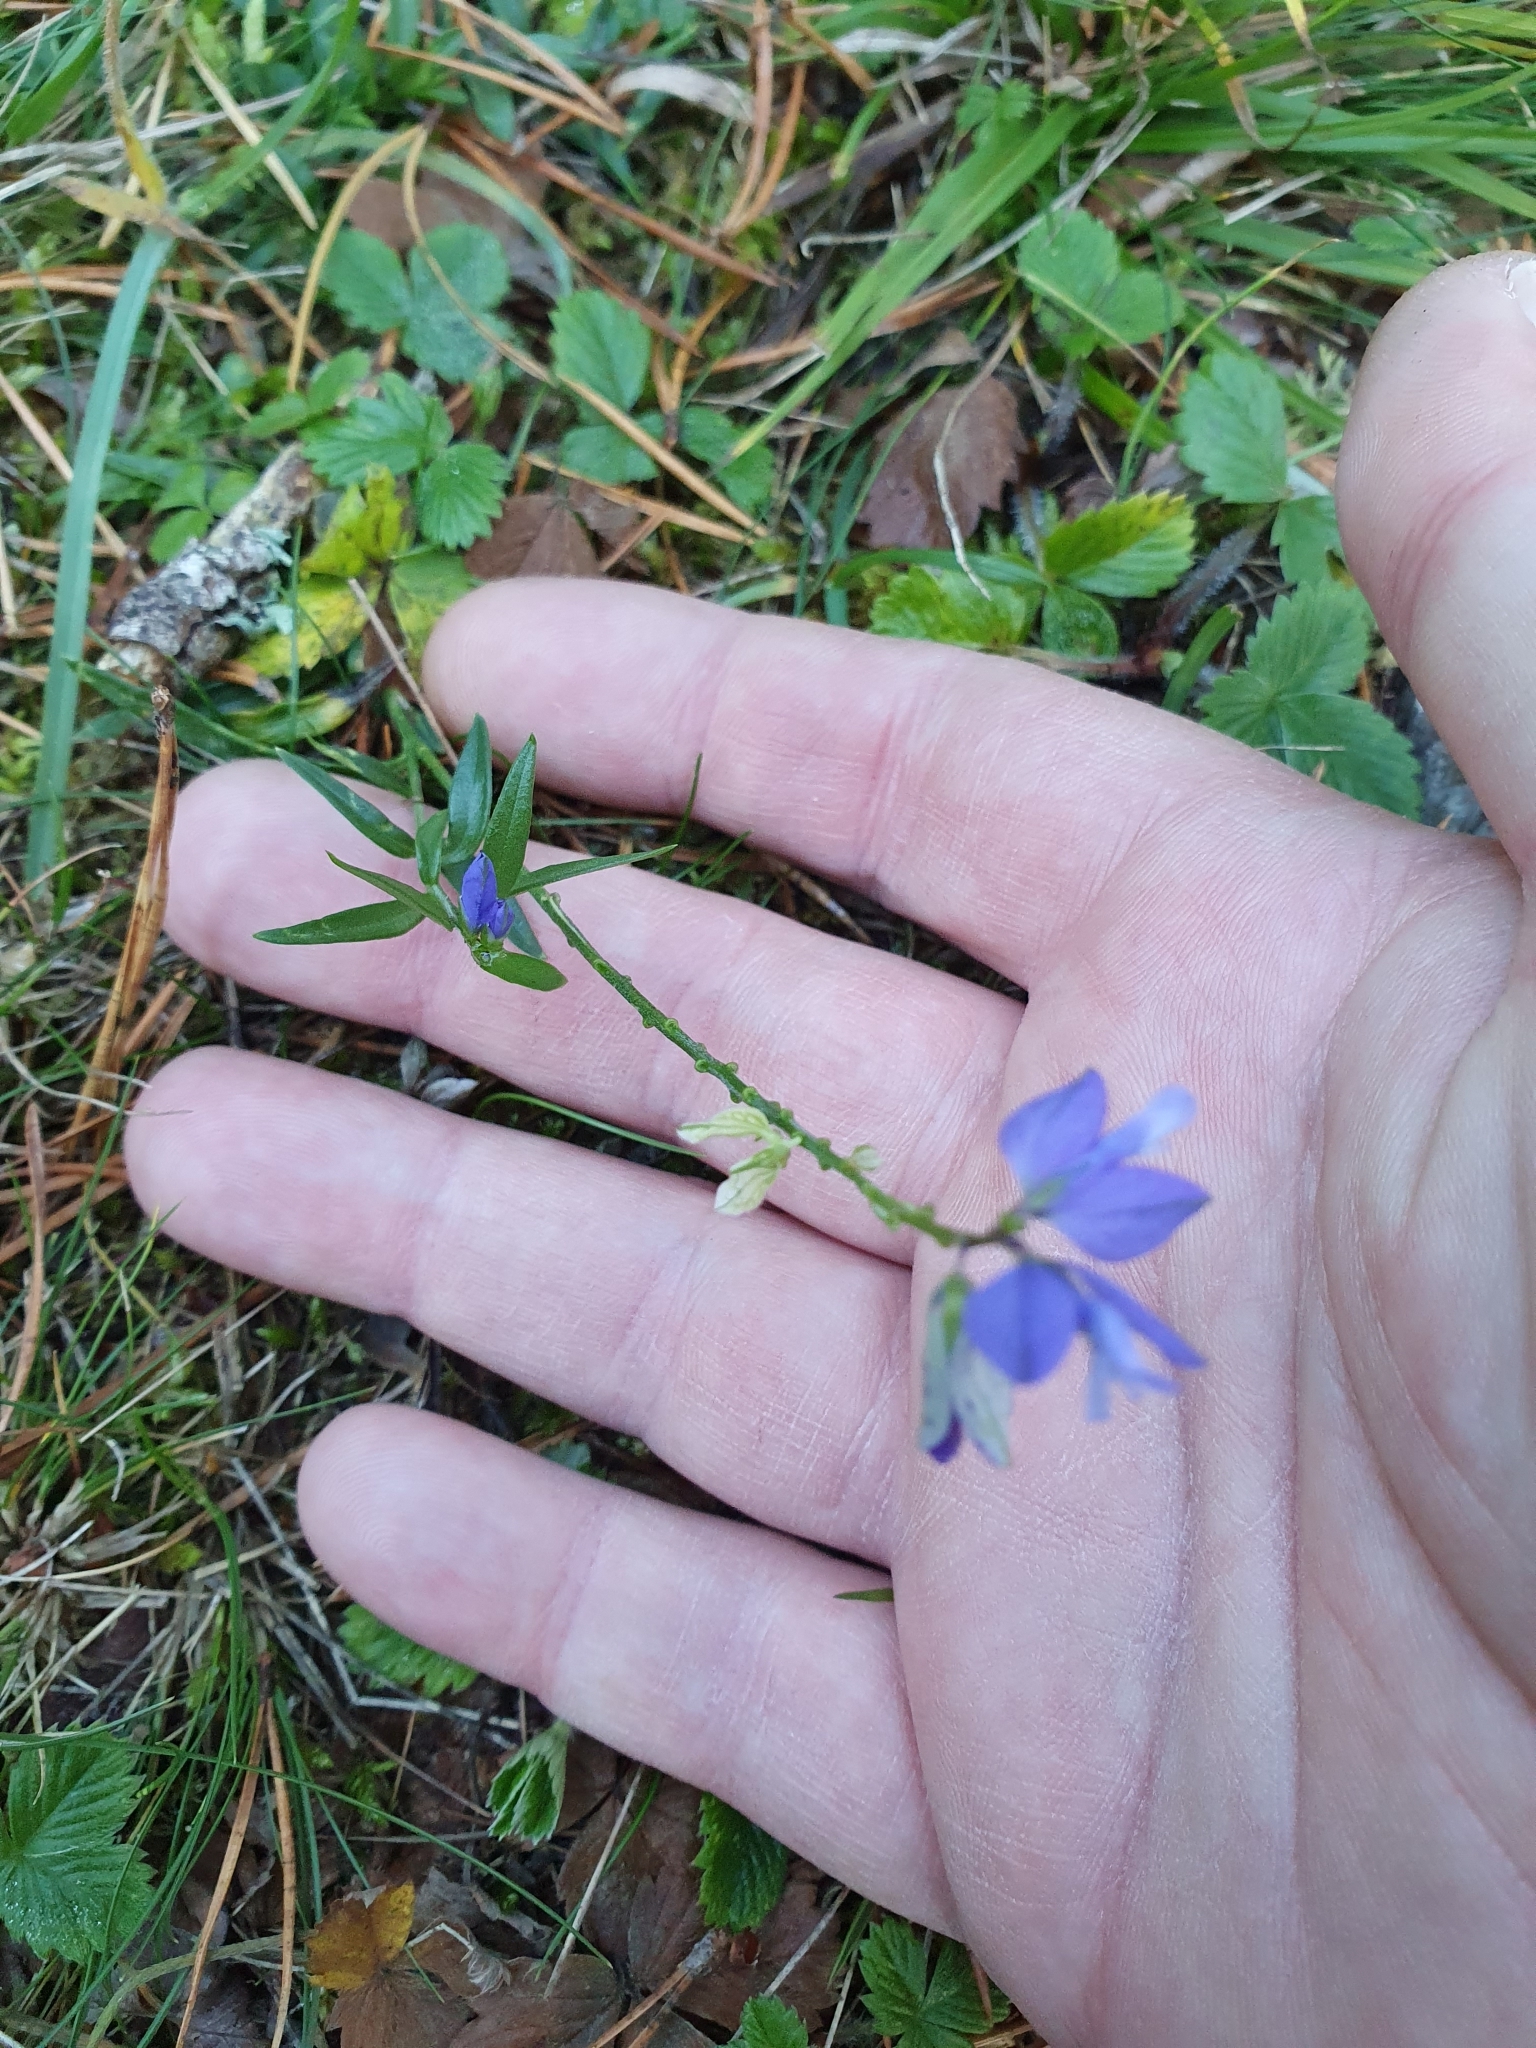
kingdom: Plantae
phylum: Tracheophyta
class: Magnoliopsida
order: Fabales
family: Polygalaceae
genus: Polygala
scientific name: Polygala vulgaris
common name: Common milkwort
